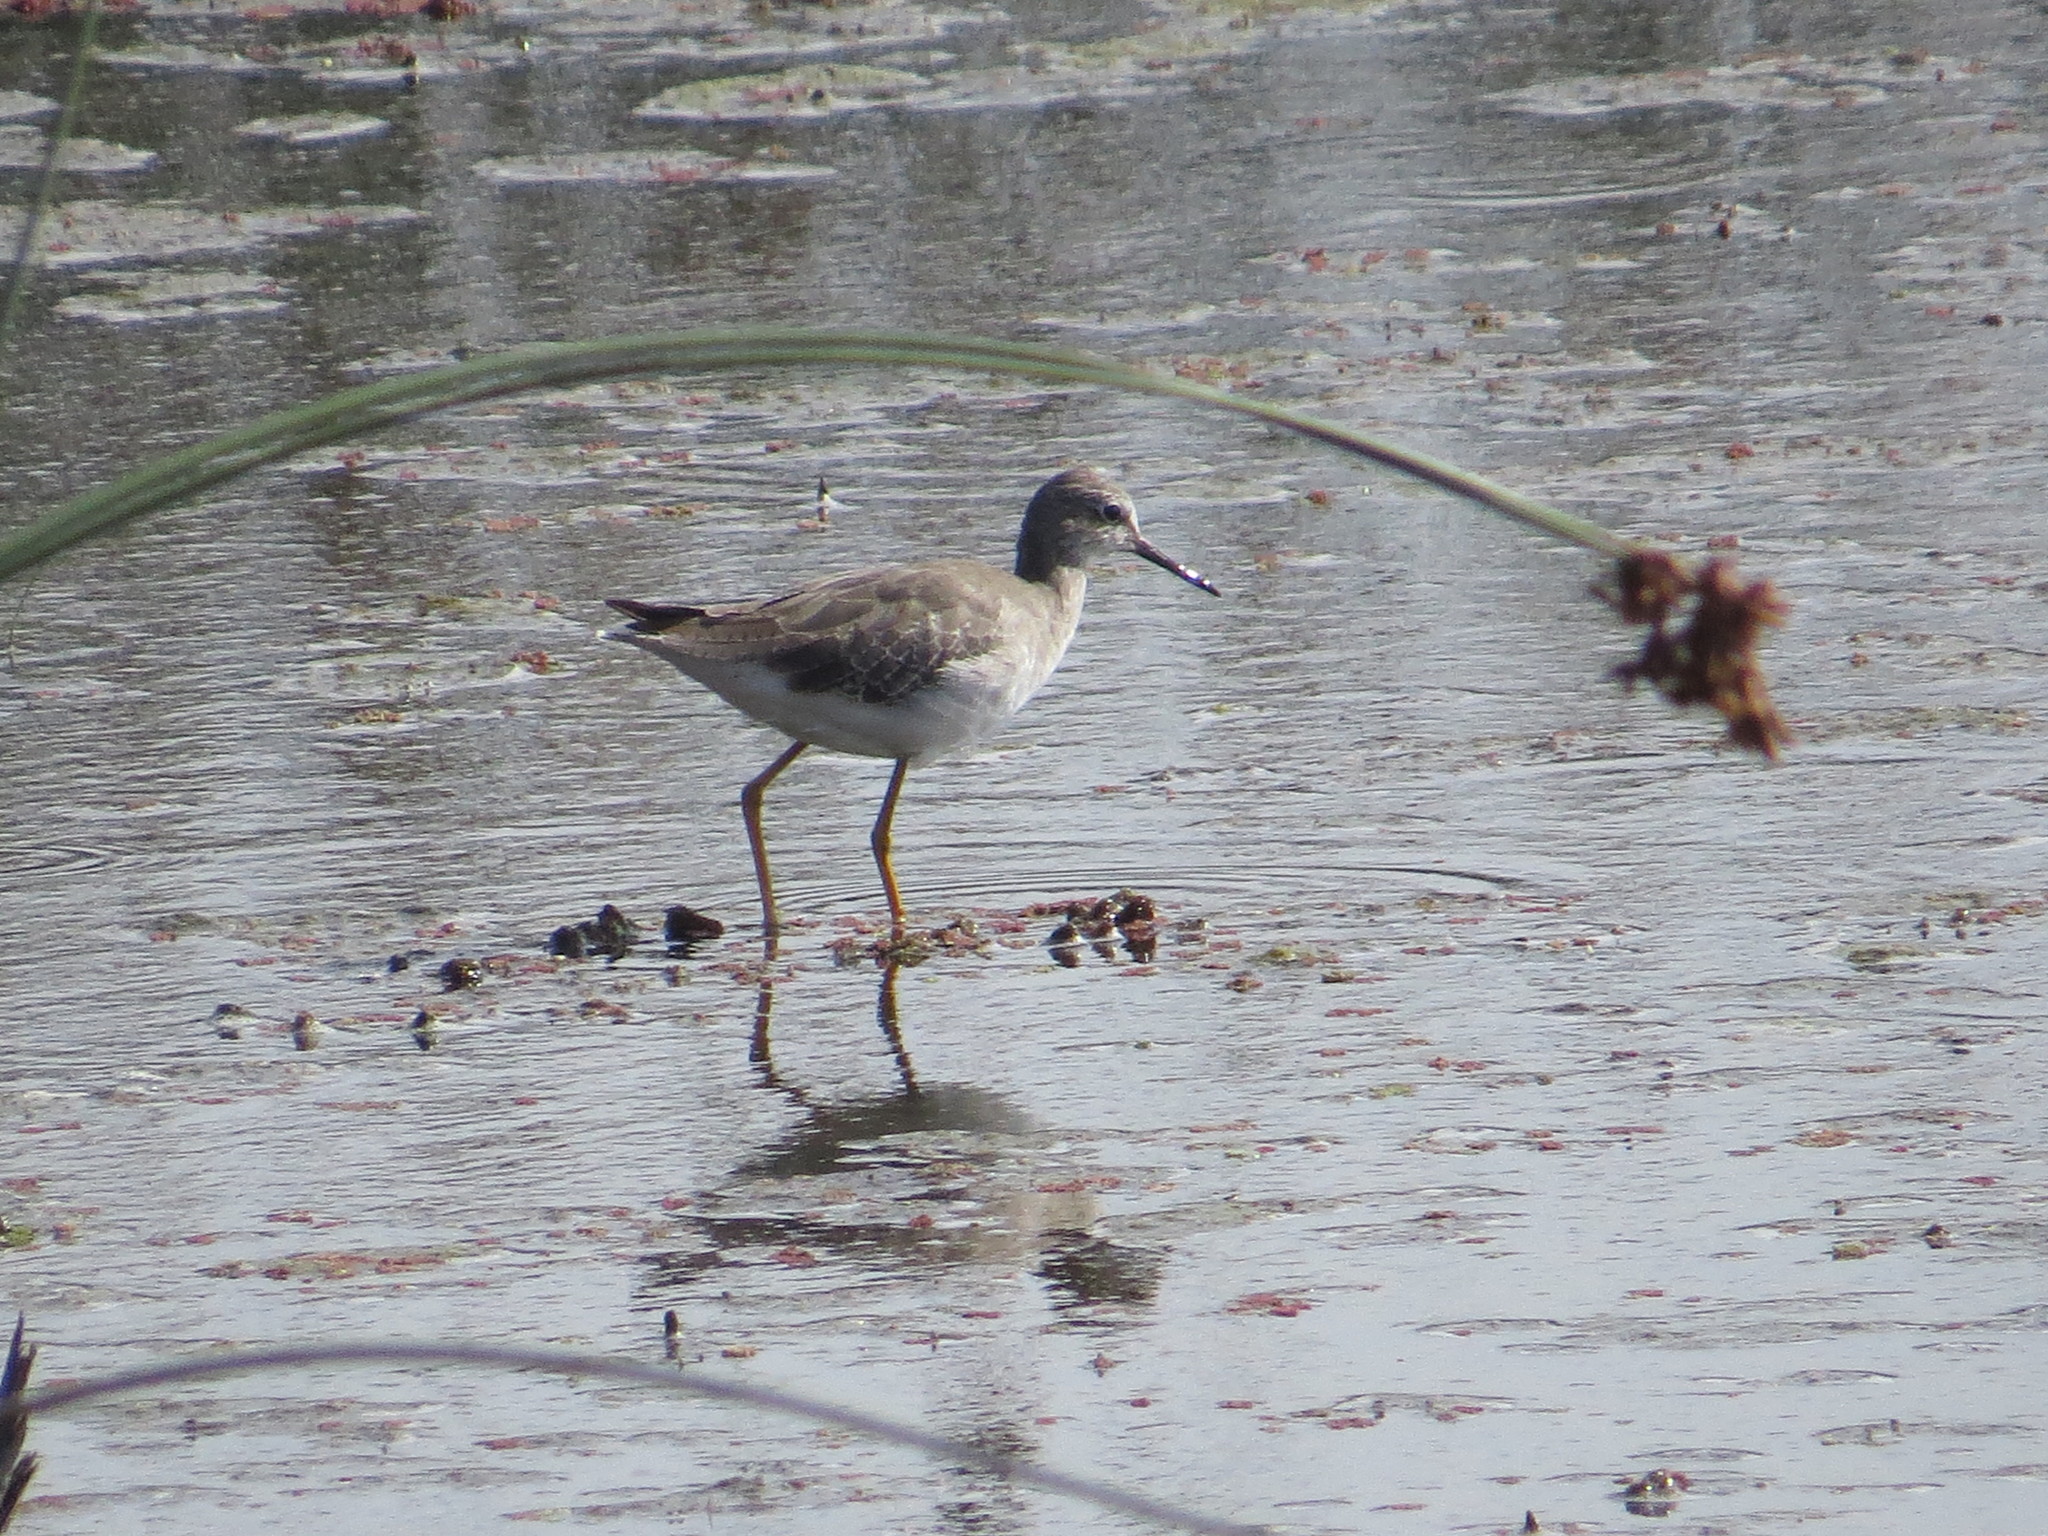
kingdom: Animalia
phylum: Chordata
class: Aves
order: Charadriiformes
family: Scolopacidae
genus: Tringa
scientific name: Tringa flavipes
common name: Lesser yellowlegs
